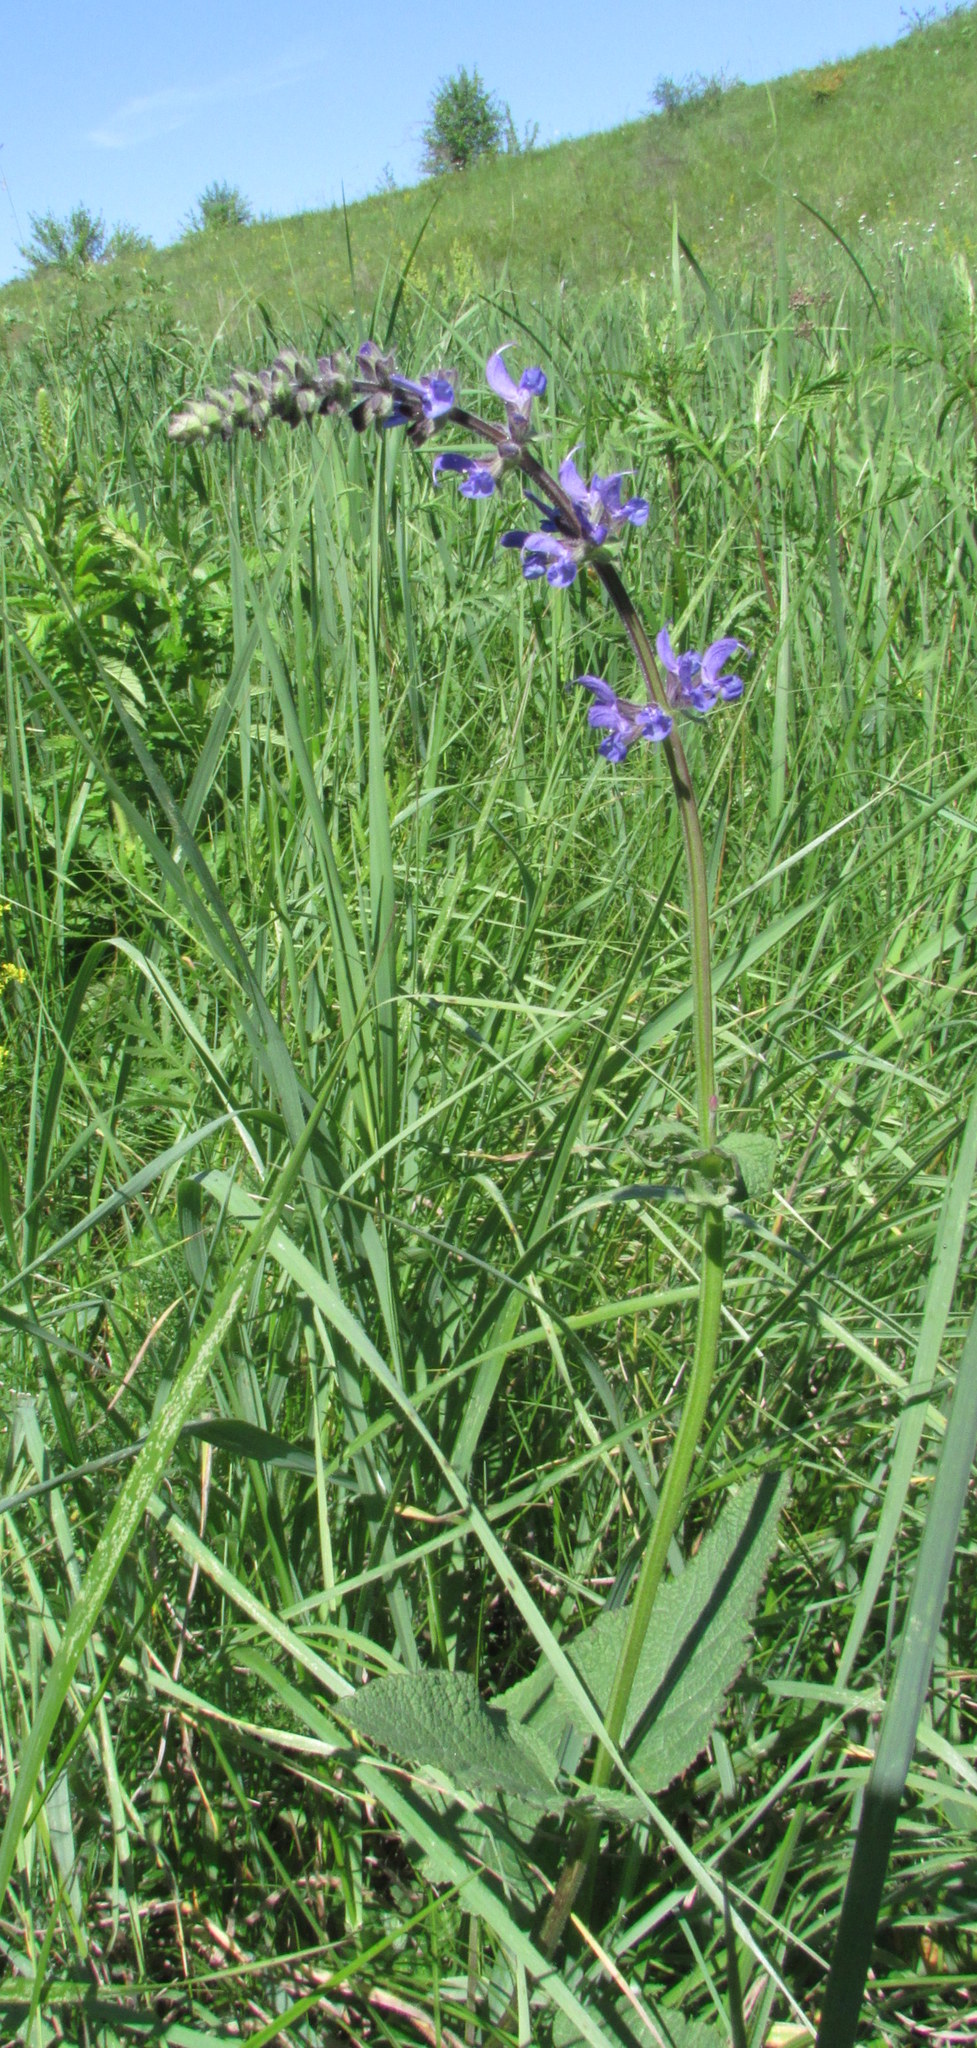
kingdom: Plantae
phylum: Tracheophyta
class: Magnoliopsida
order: Lamiales
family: Lamiaceae
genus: Salvia
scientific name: Salvia dumetorum
